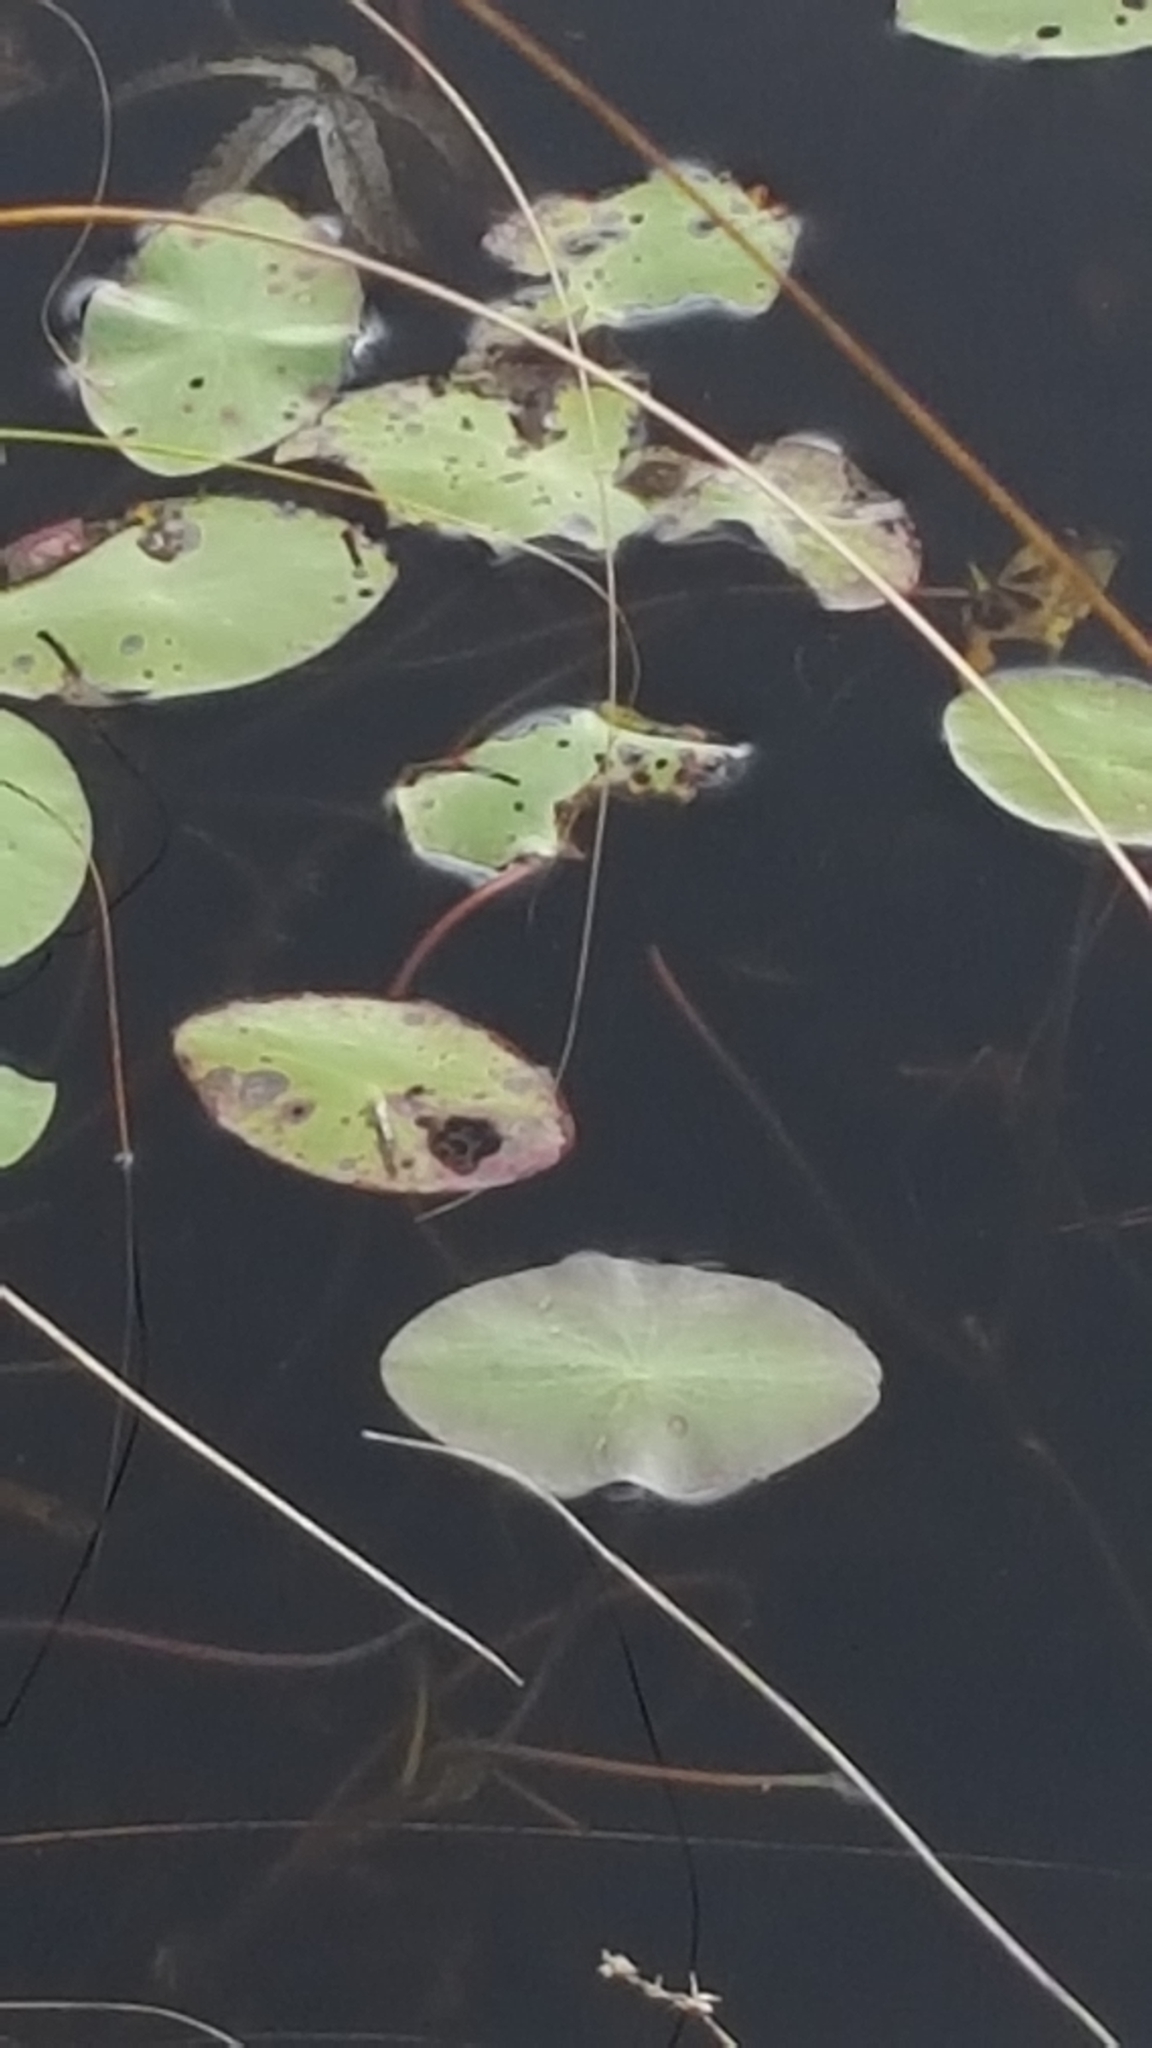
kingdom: Plantae
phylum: Tracheophyta
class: Magnoliopsida
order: Nymphaeales
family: Cabombaceae
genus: Brasenia
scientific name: Brasenia schreberi
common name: Water-shield
